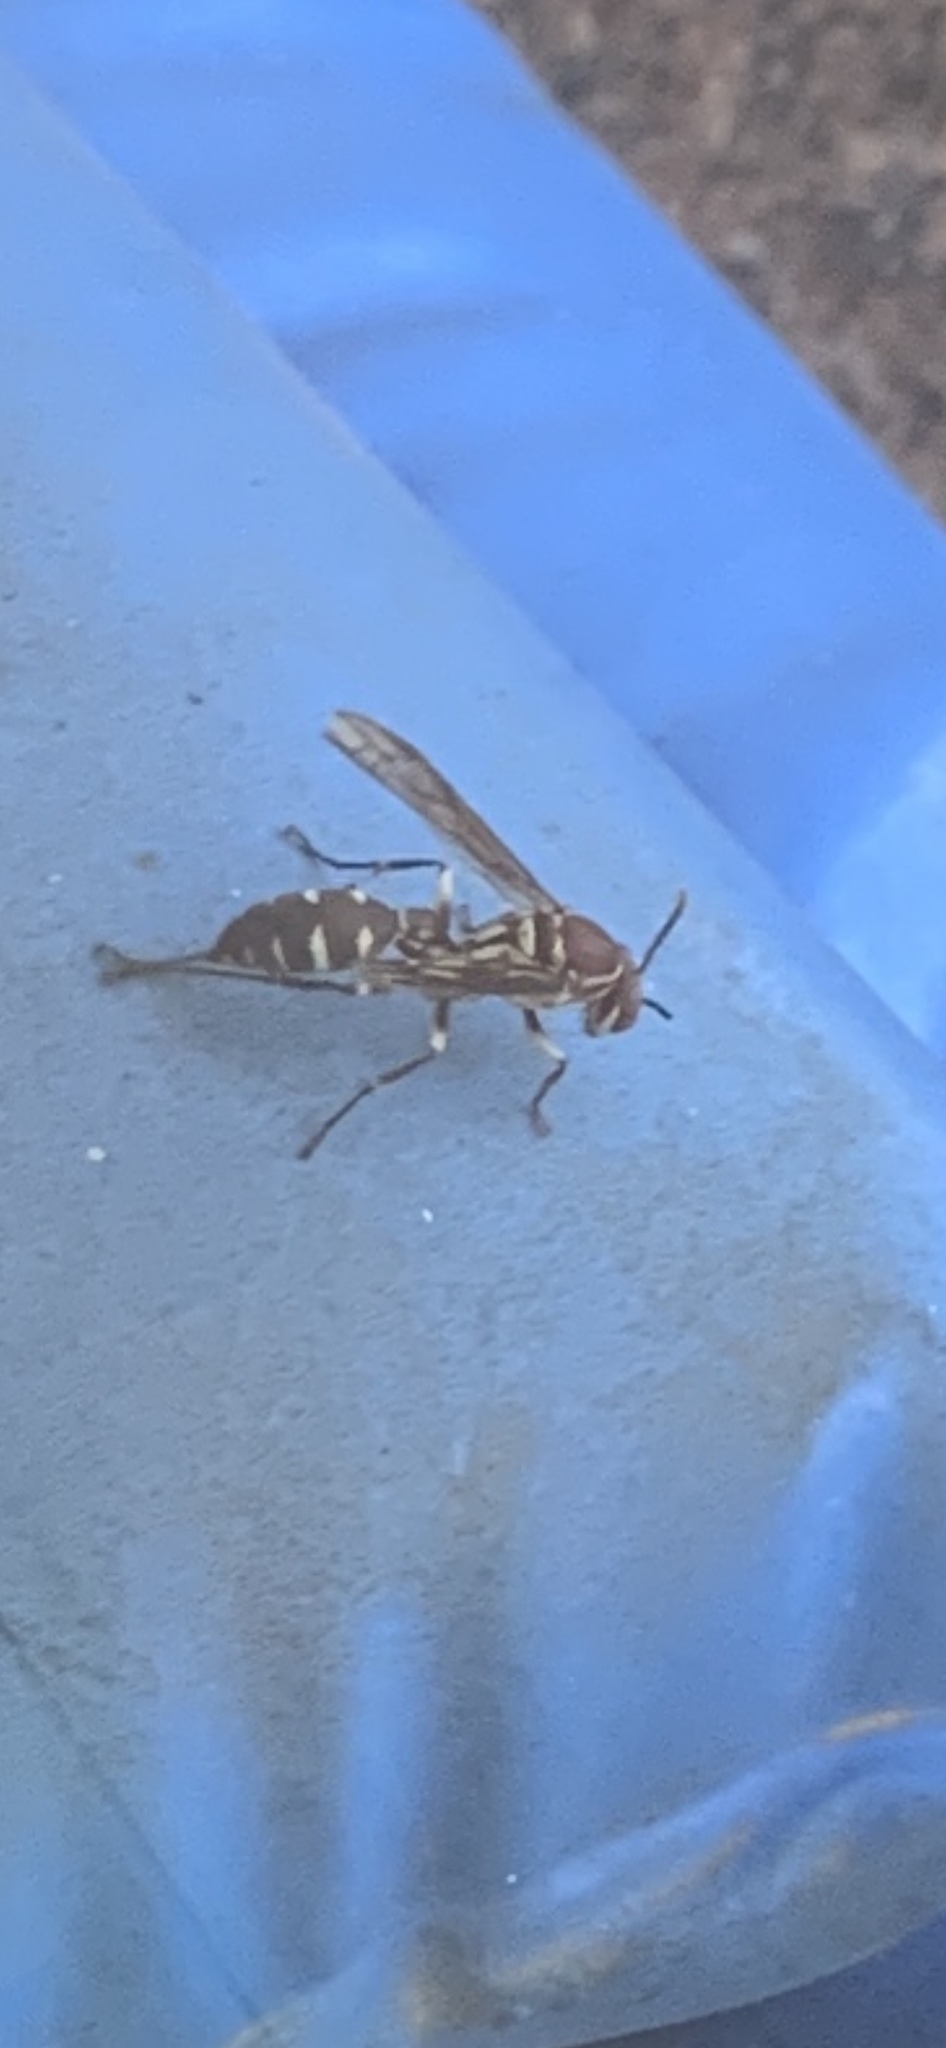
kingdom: Animalia
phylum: Arthropoda
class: Insecta
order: Hymenoptera
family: Vespidae
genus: Parapolybia
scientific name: Parapolybia nodosa
